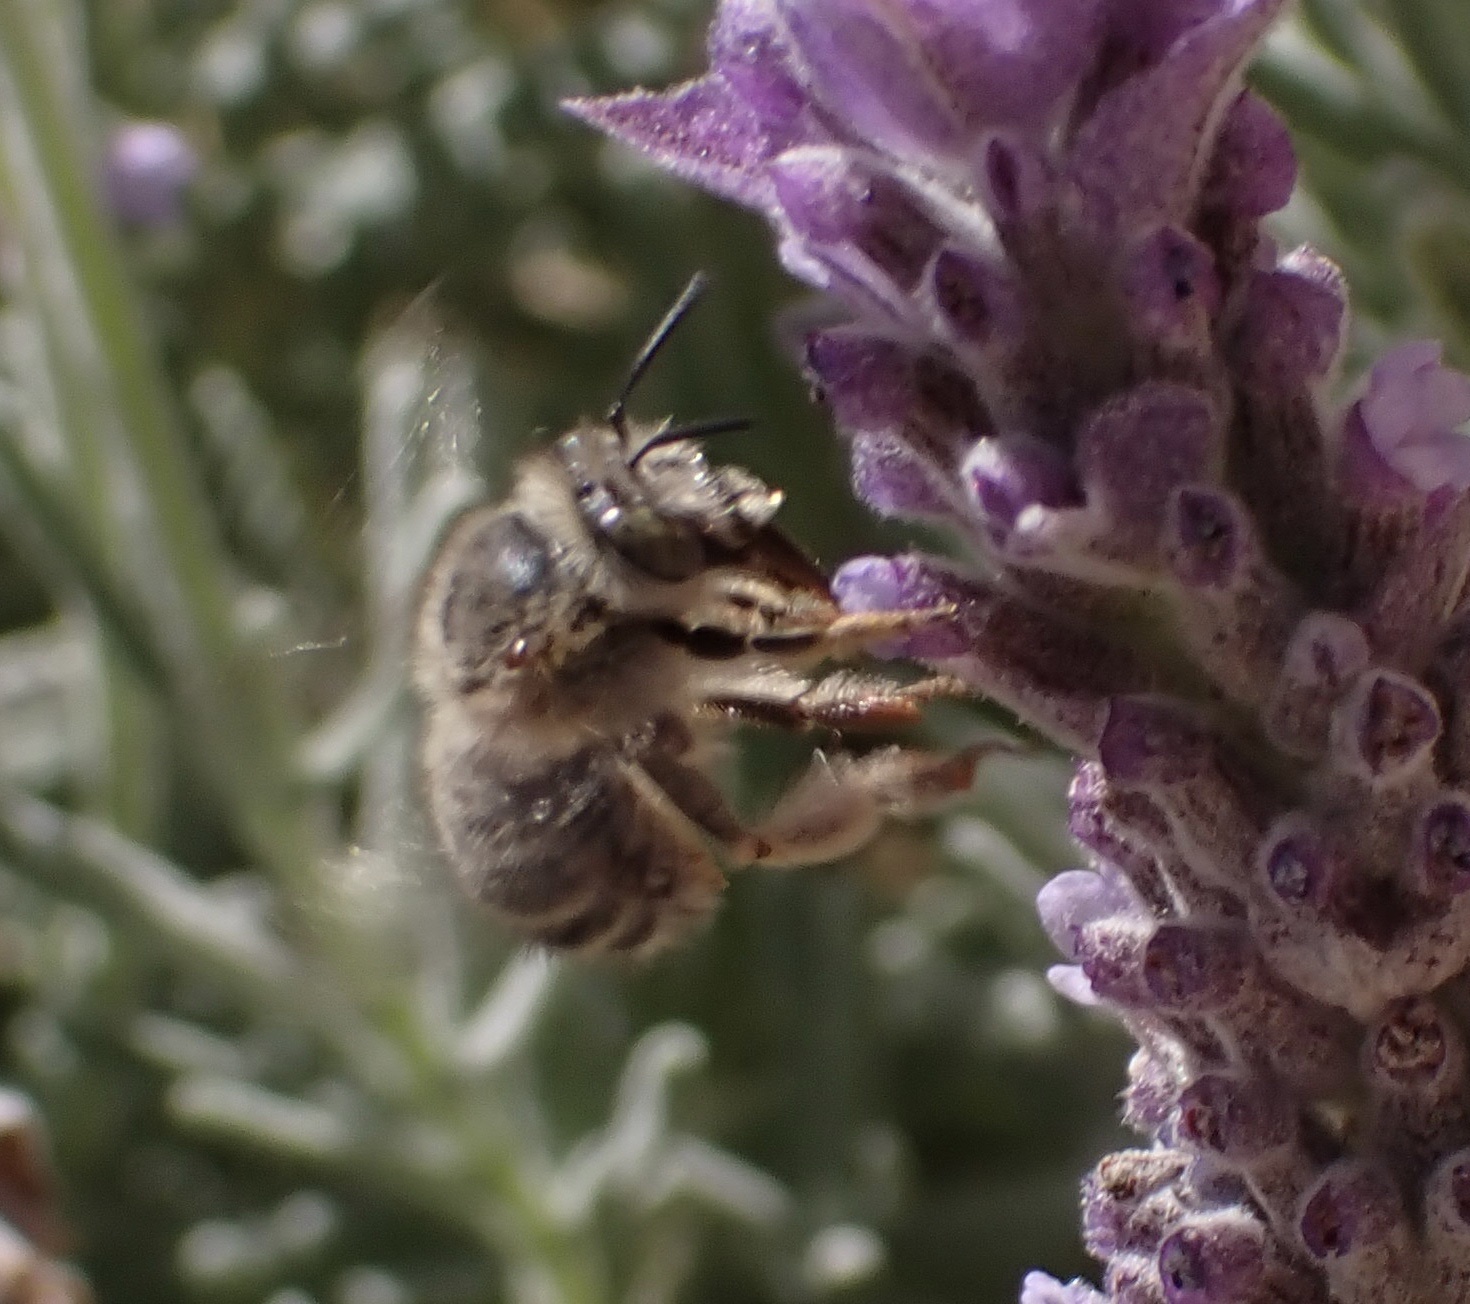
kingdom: Animalia
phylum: Arthropoda
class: Insecta
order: Hymenoptera
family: Apidae
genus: Anthophora
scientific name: Anthophora crinipes
